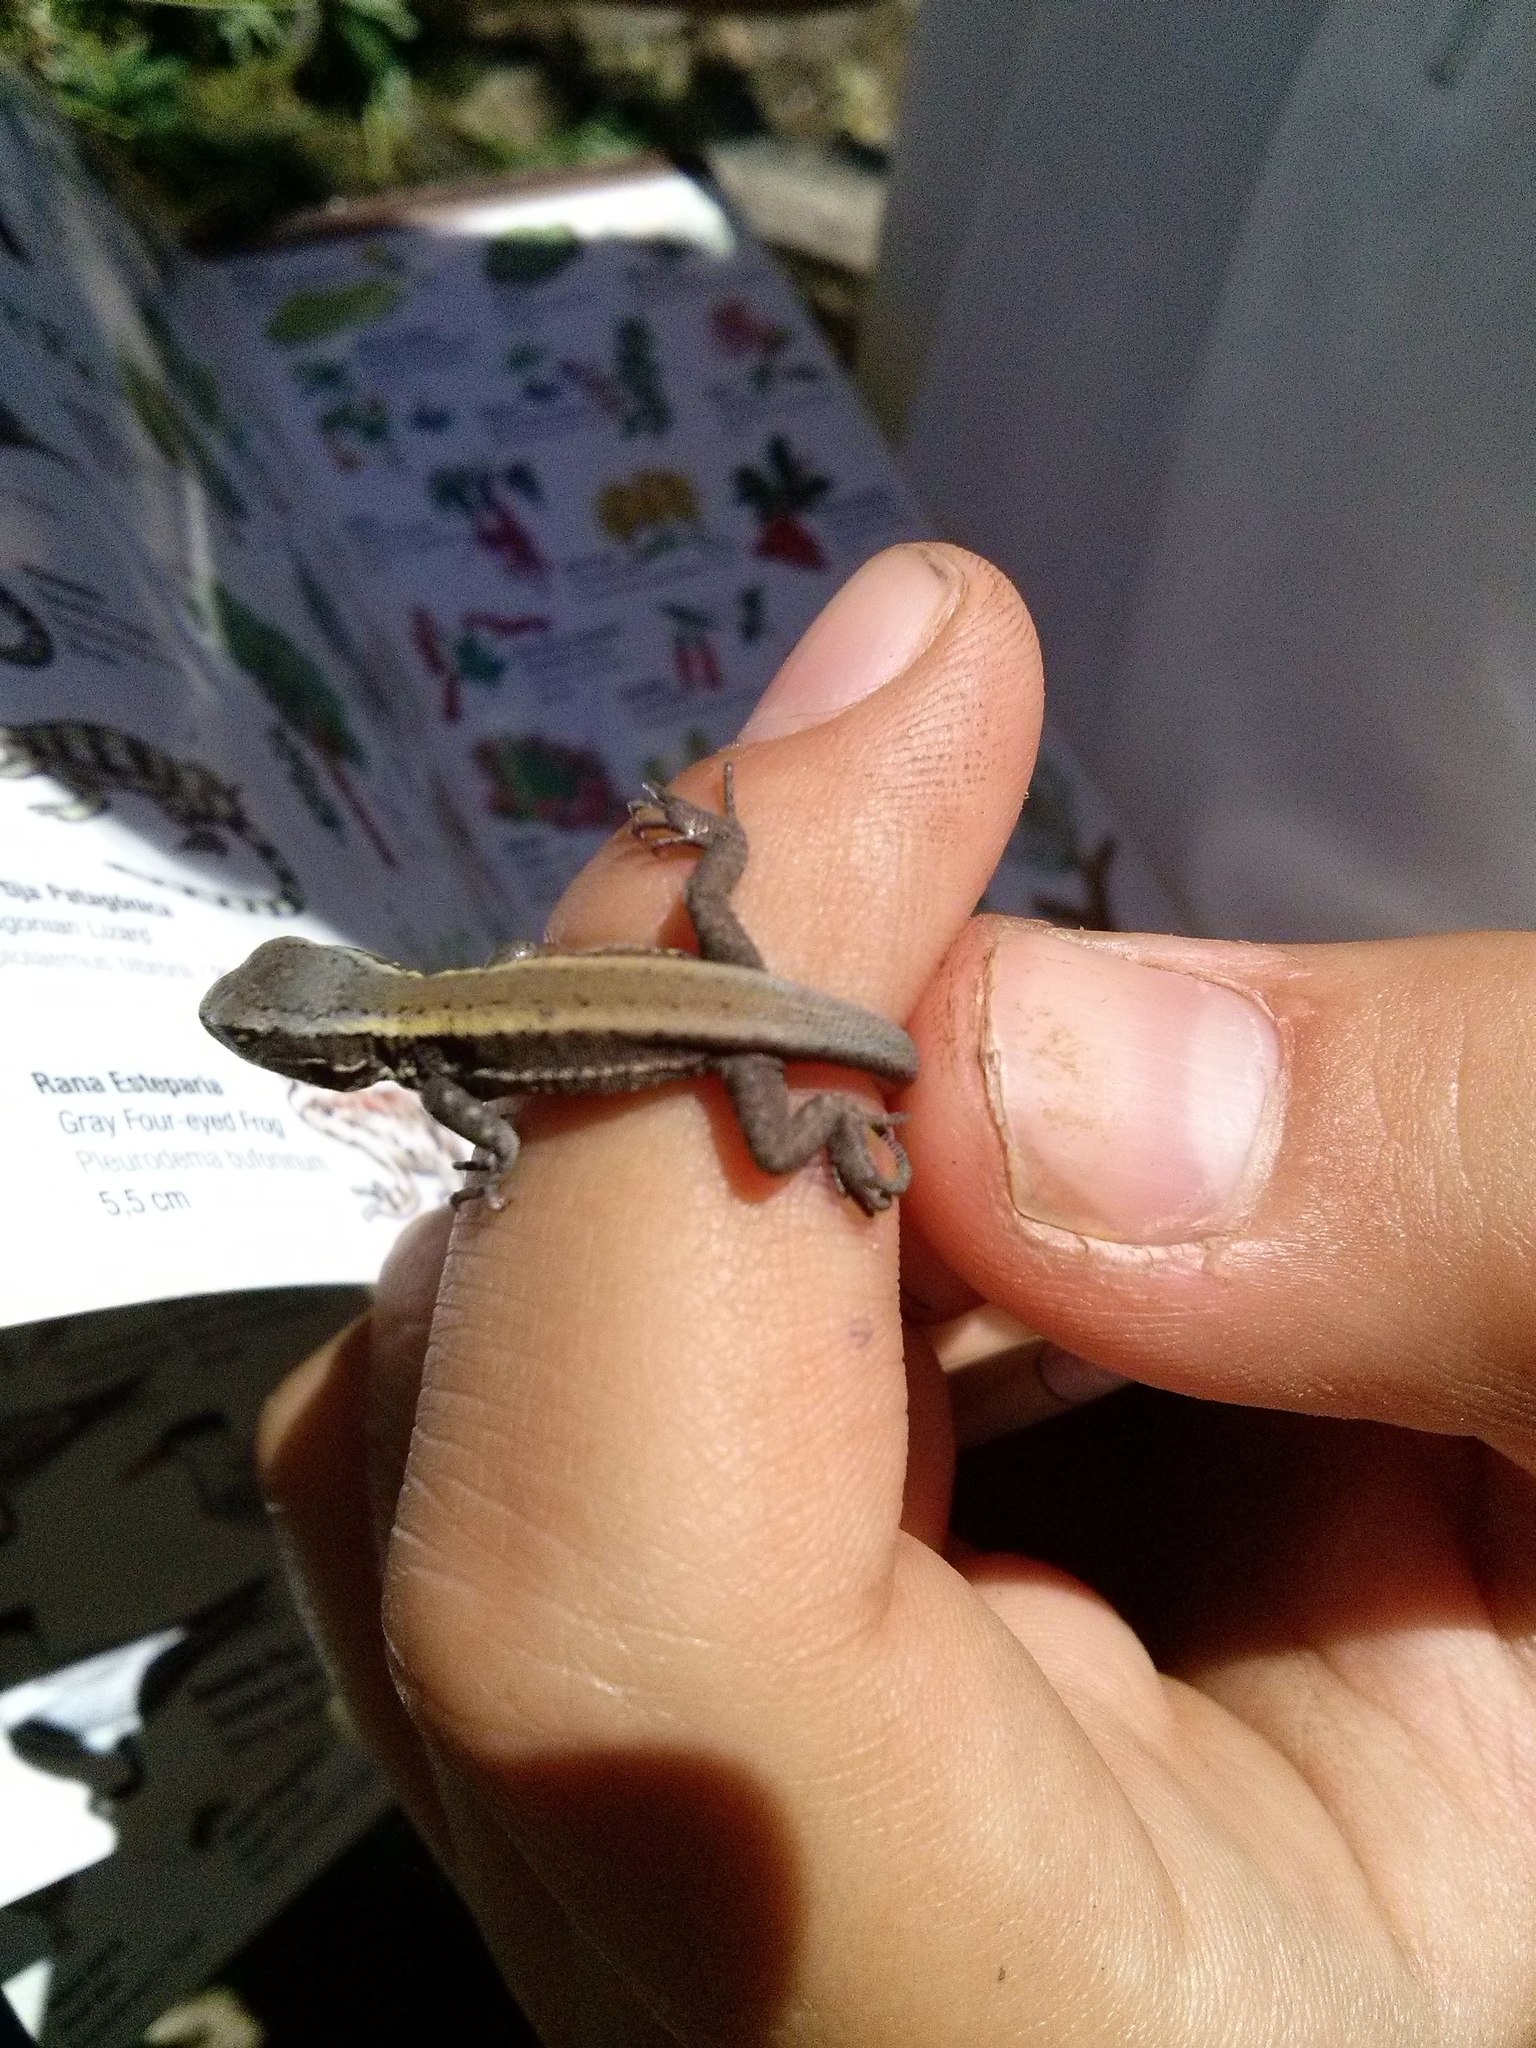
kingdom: Animalia
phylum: Chordata
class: Squamata
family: Liolaemidae
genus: Liolaemus
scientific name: Liolaemus pictus
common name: Painted tree iguana
